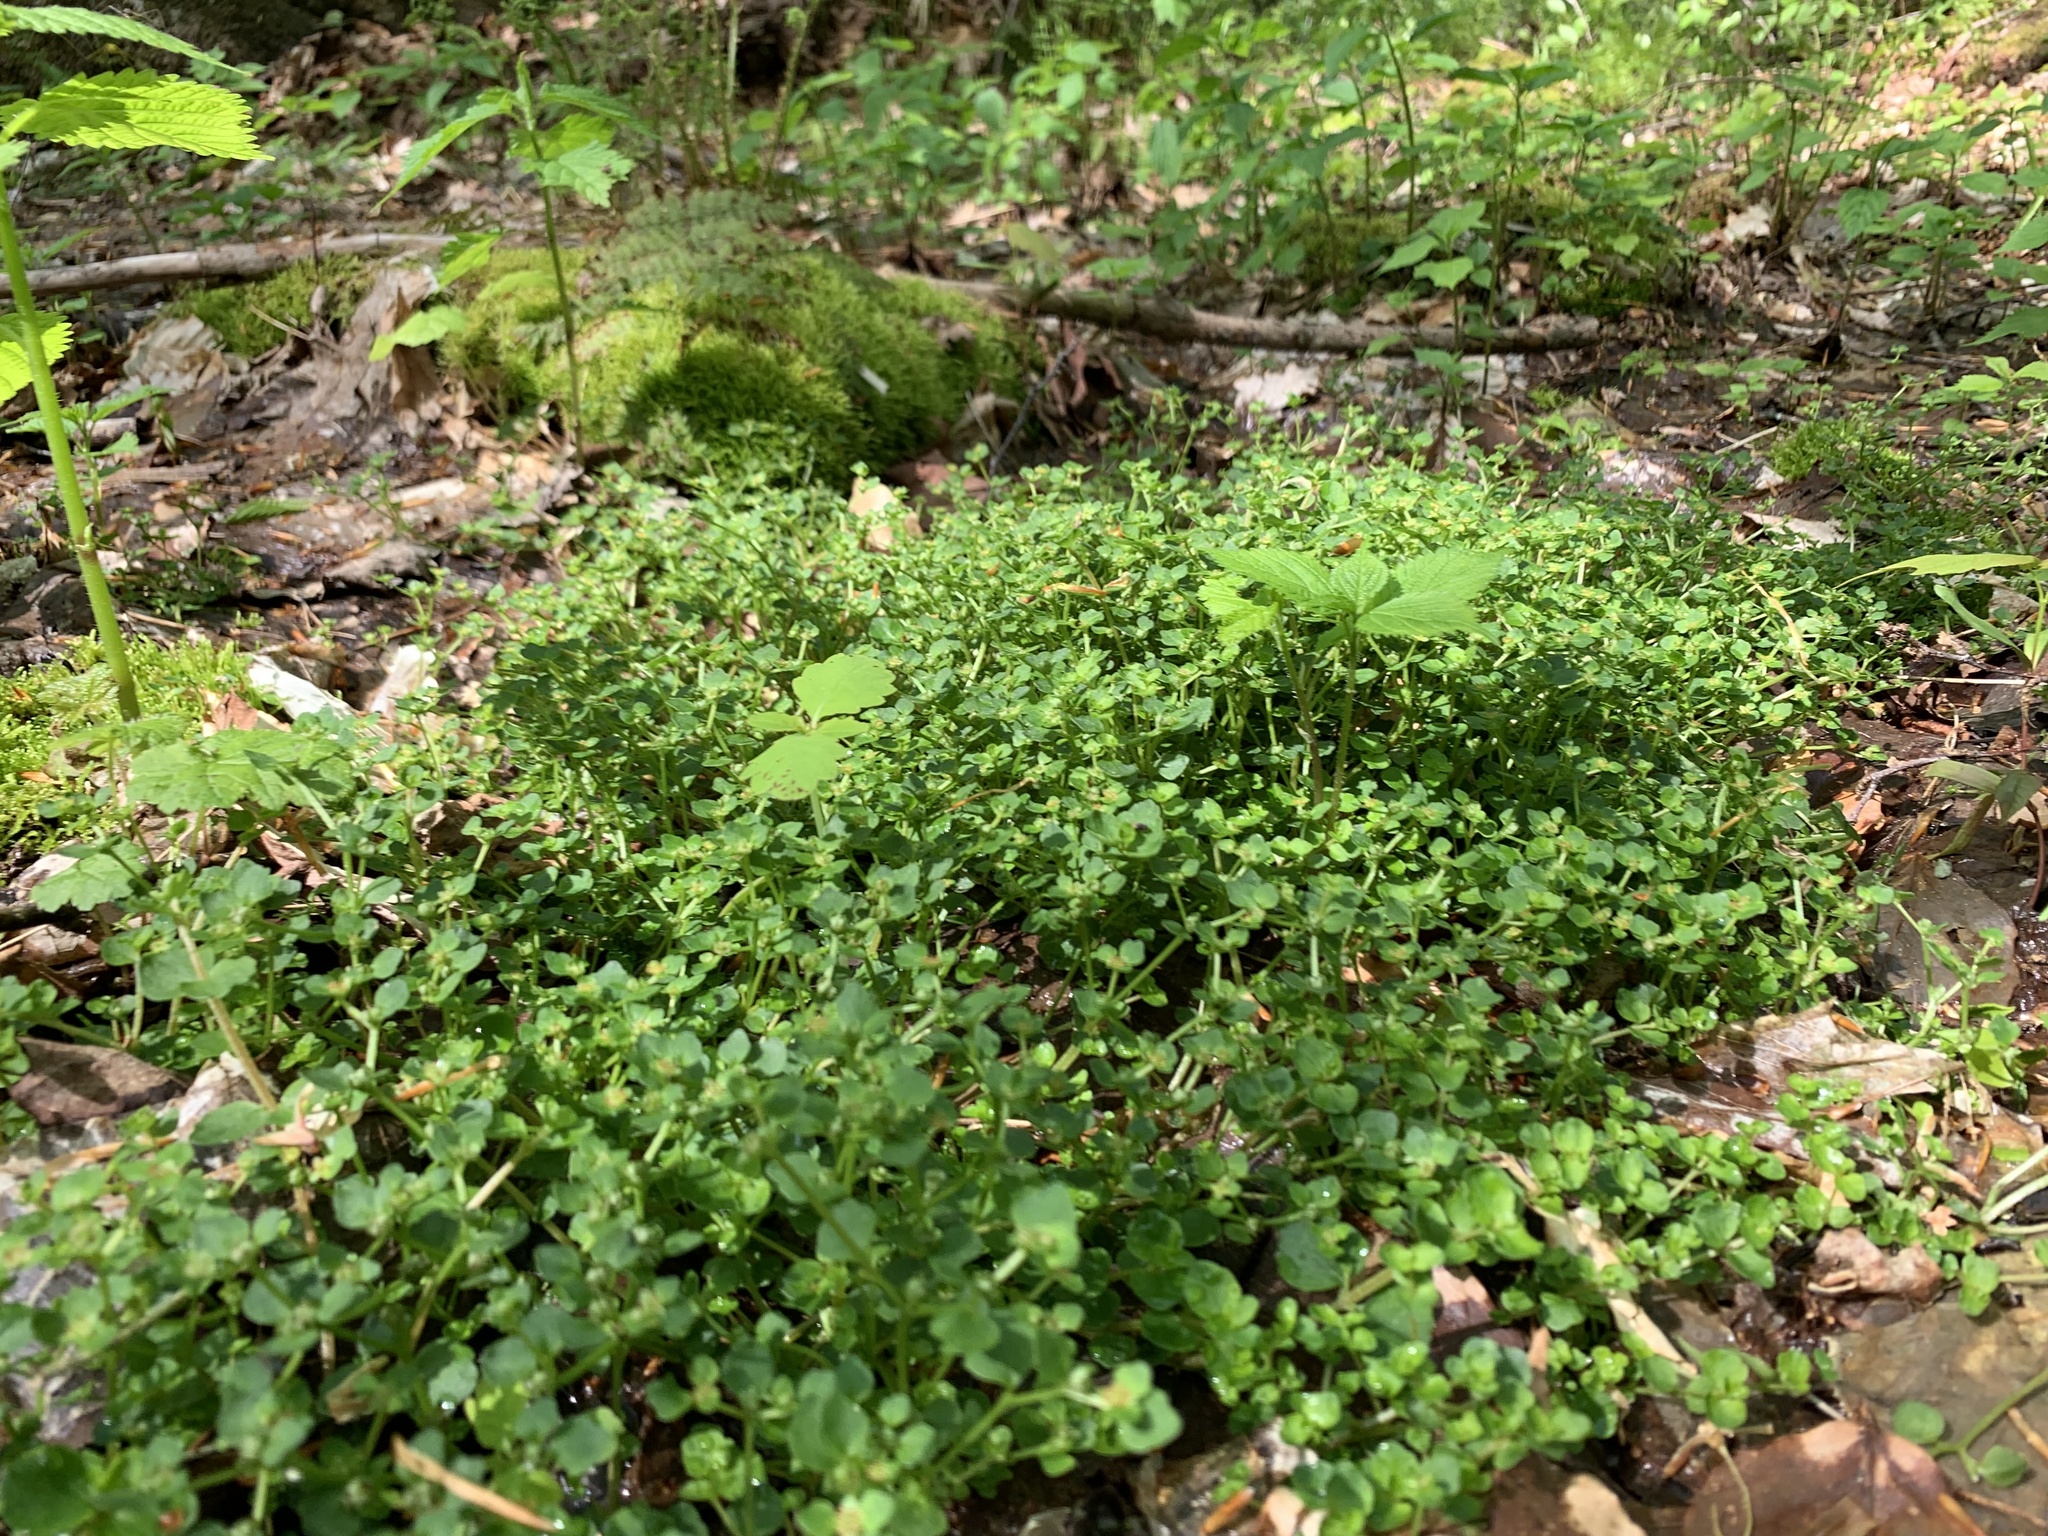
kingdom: Plantae
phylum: Tracheophyta
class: Magnoliopsida
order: Saxifragales
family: Saxifragaceae
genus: Chrysosplenium
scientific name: Chrysosplenium americanum
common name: American golden-saxifrage
